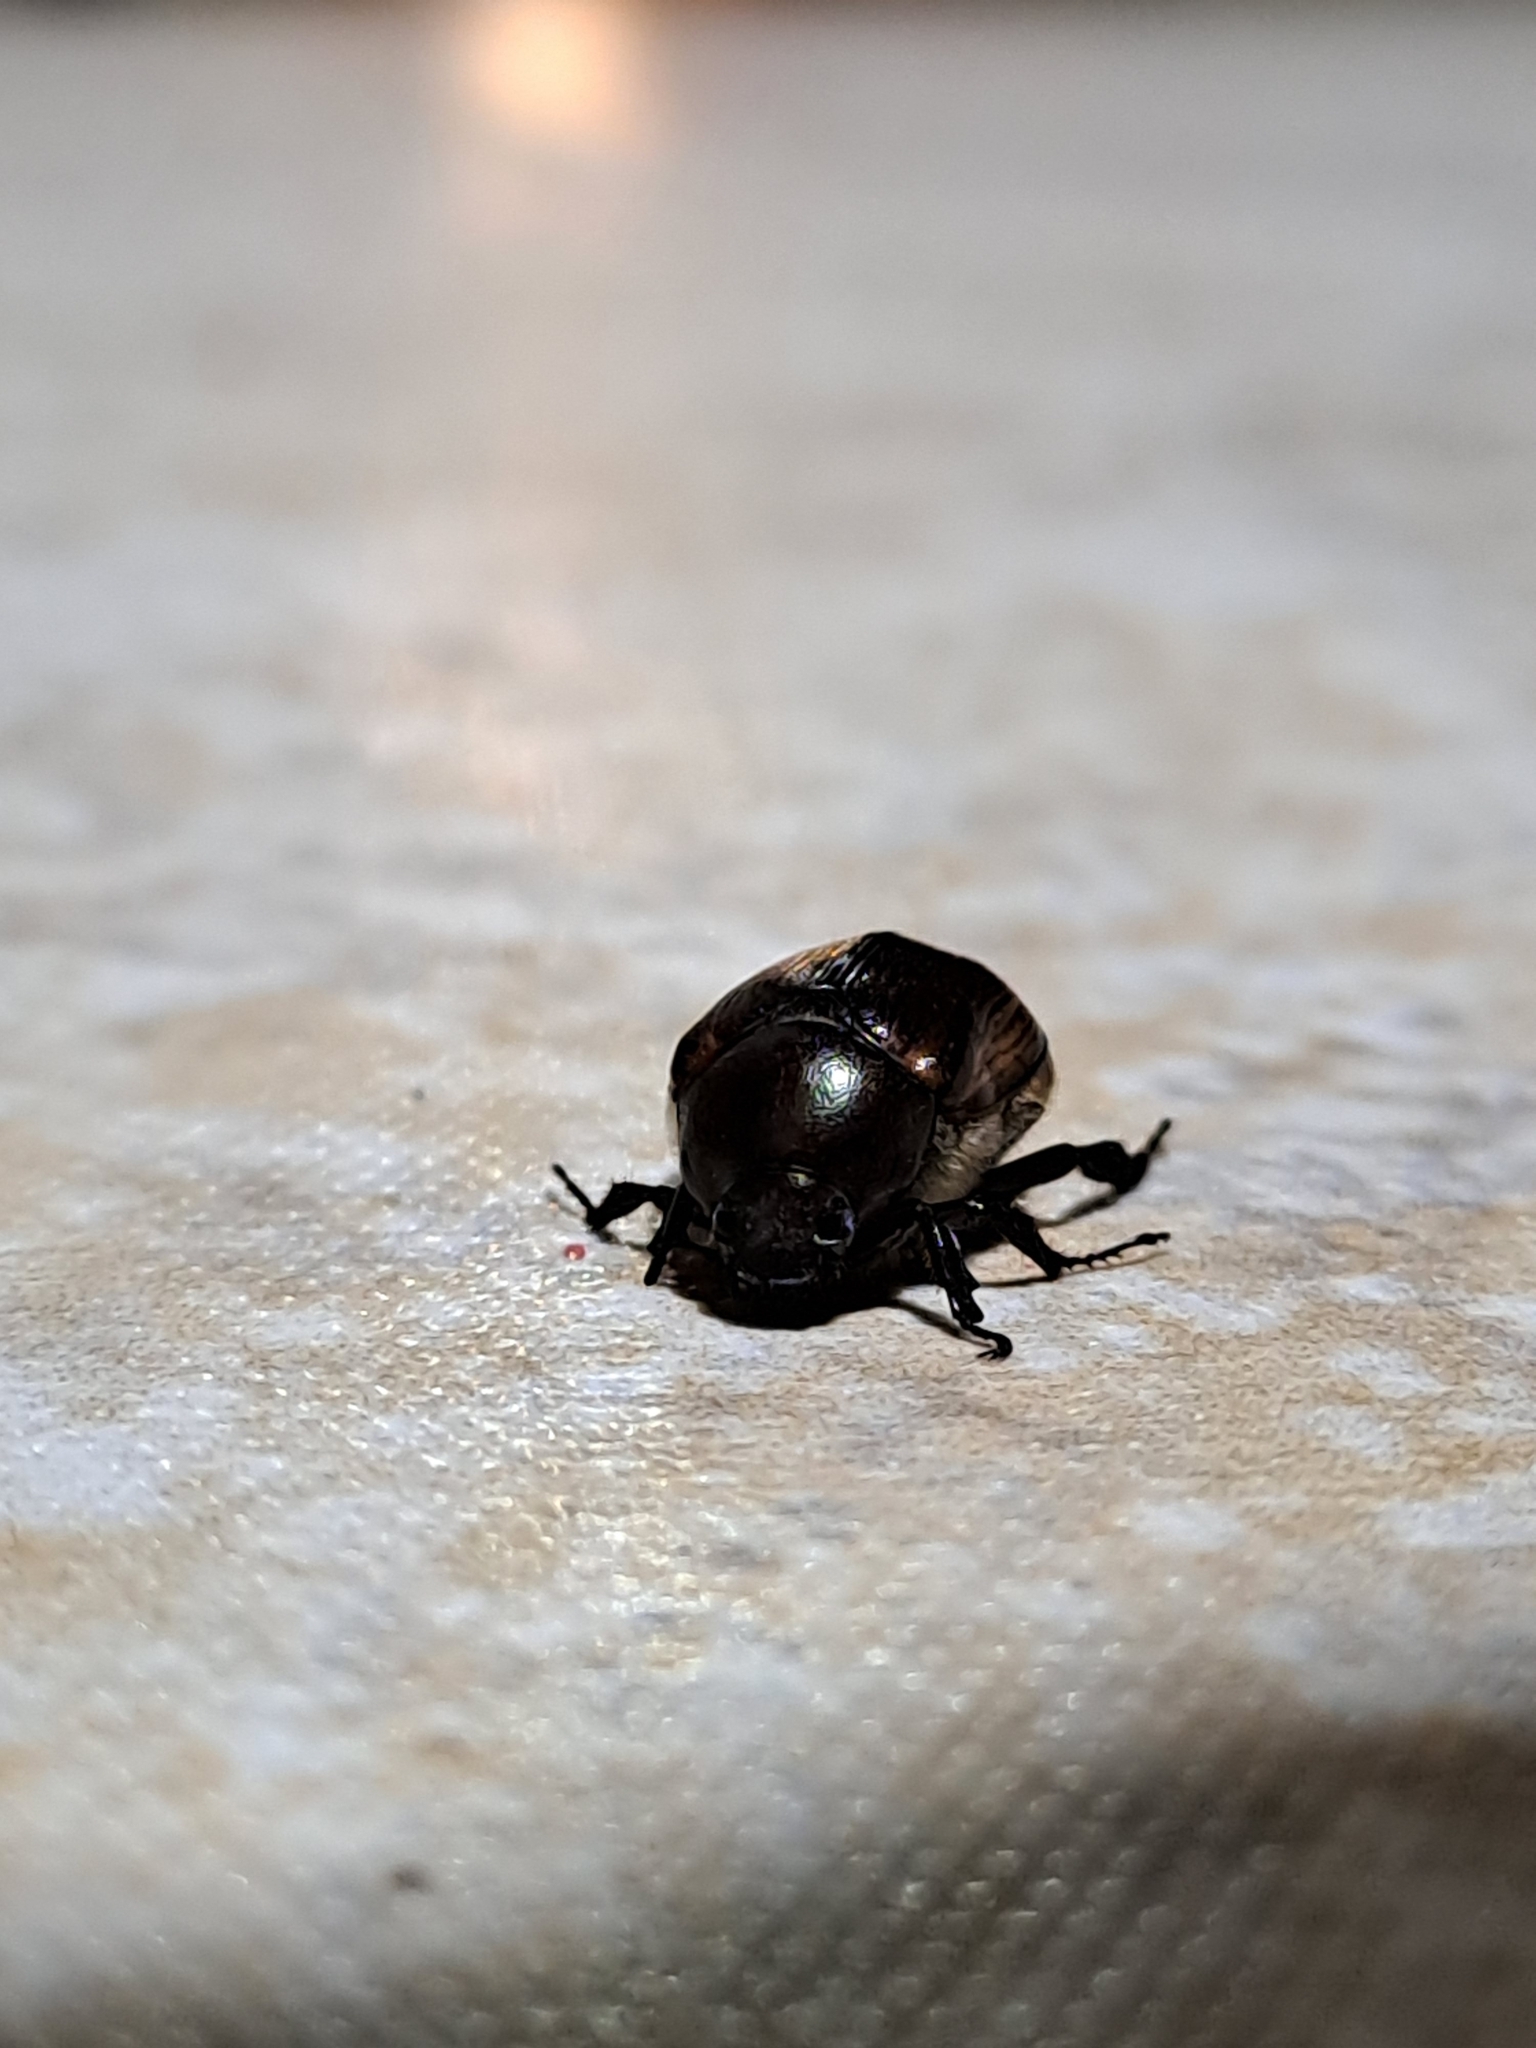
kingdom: Animalia
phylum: Arthropoda
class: Insecta
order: Coleoptera
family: Scarabaeidae
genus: Paranomala
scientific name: Paranomala testaceipennis
